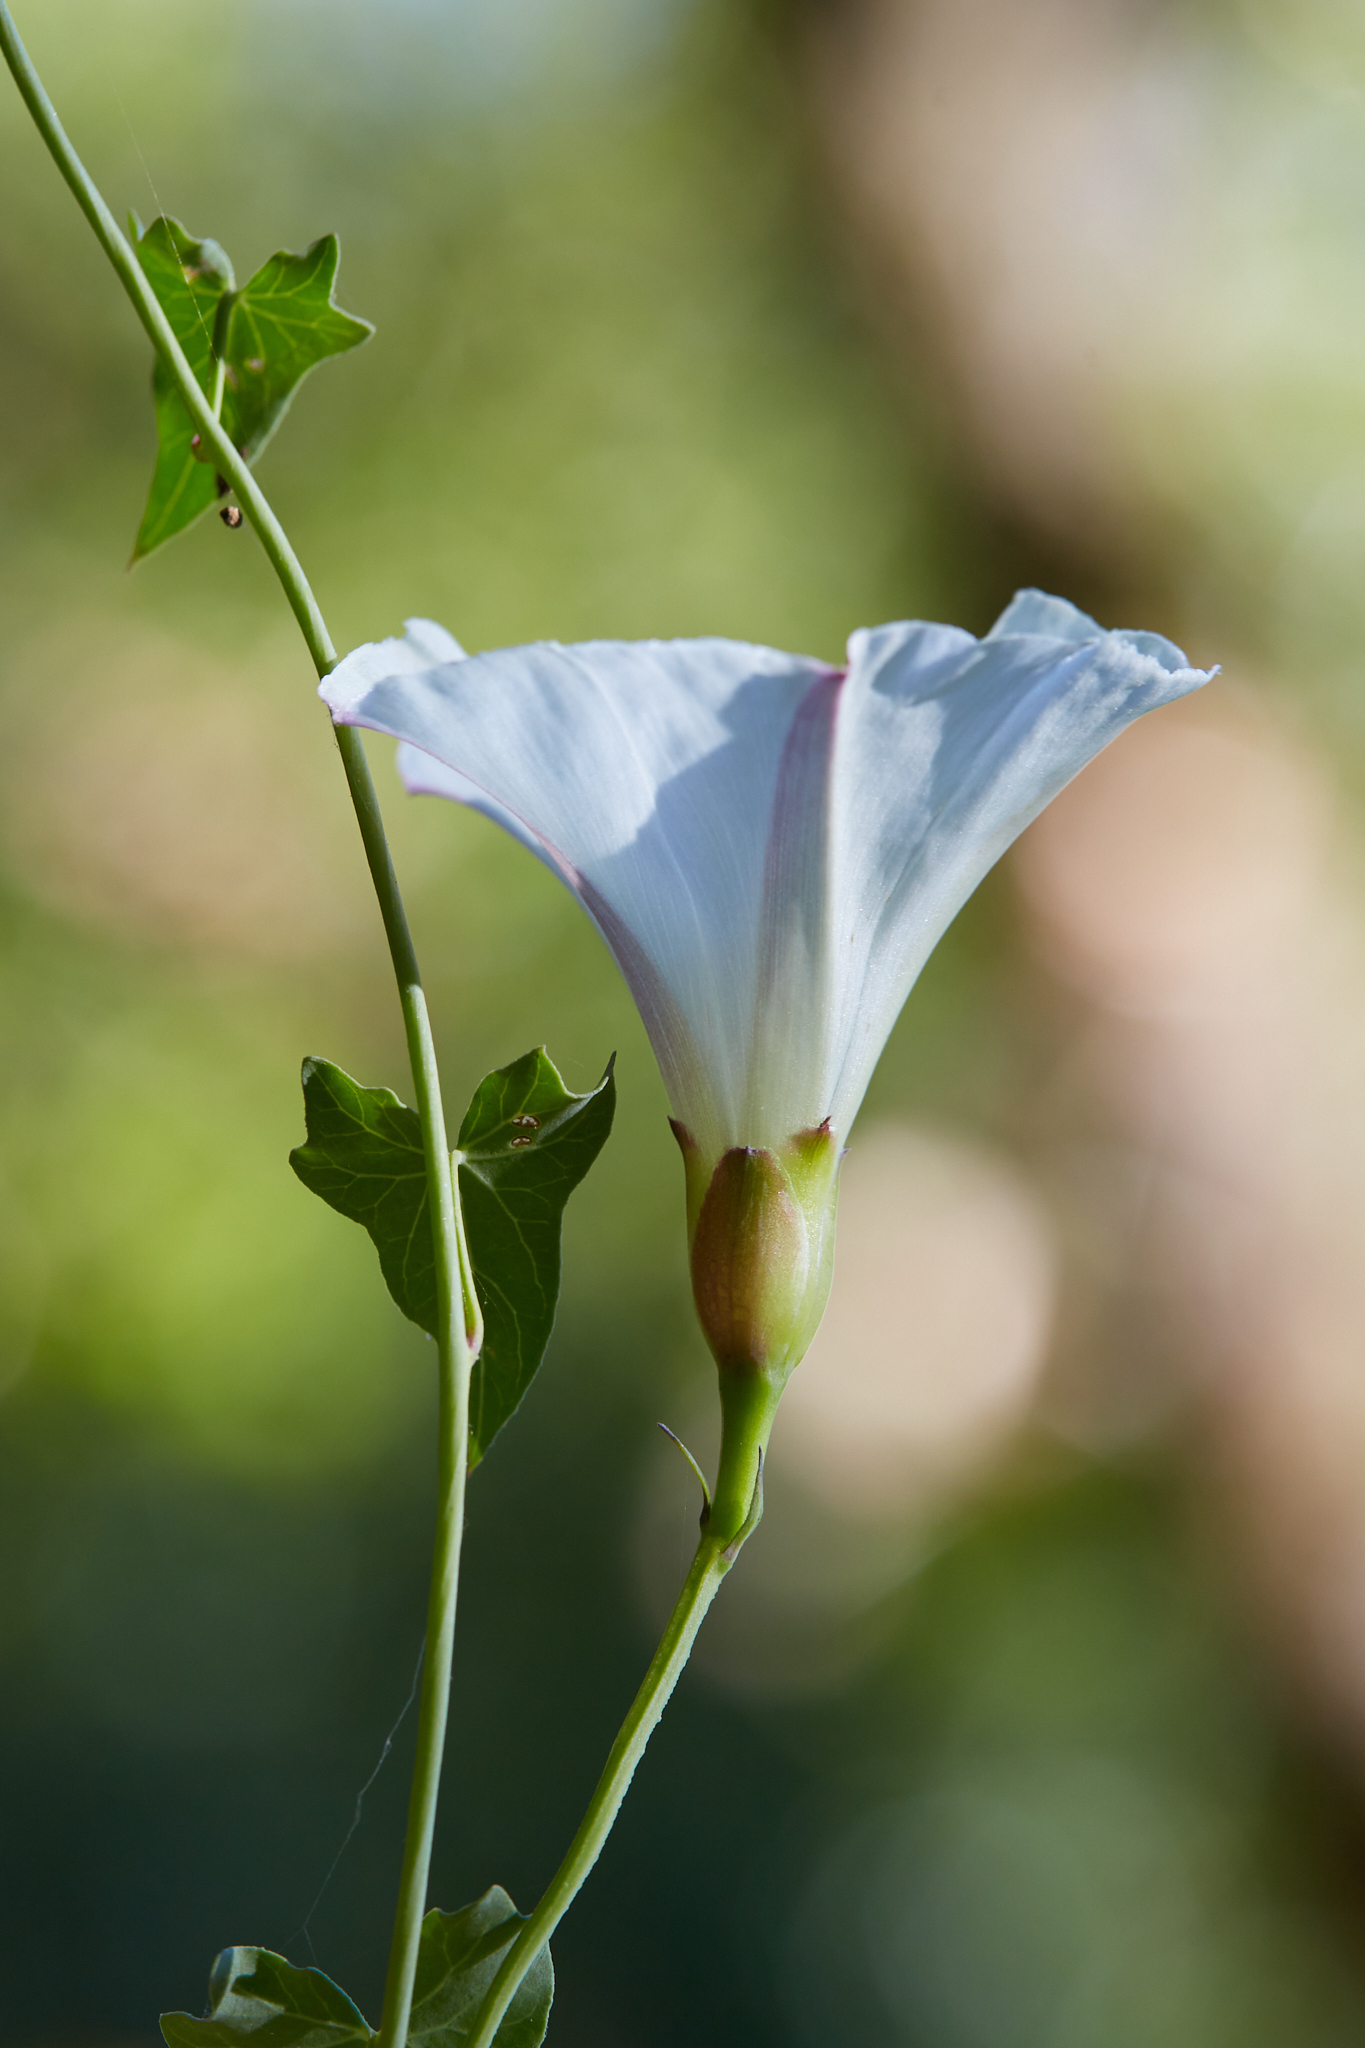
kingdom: Plantae
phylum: Tracheophyta
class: Magnoliopsida
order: Solanales
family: Convolvulaceae
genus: Calystegia
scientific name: Calystegia purpurata
